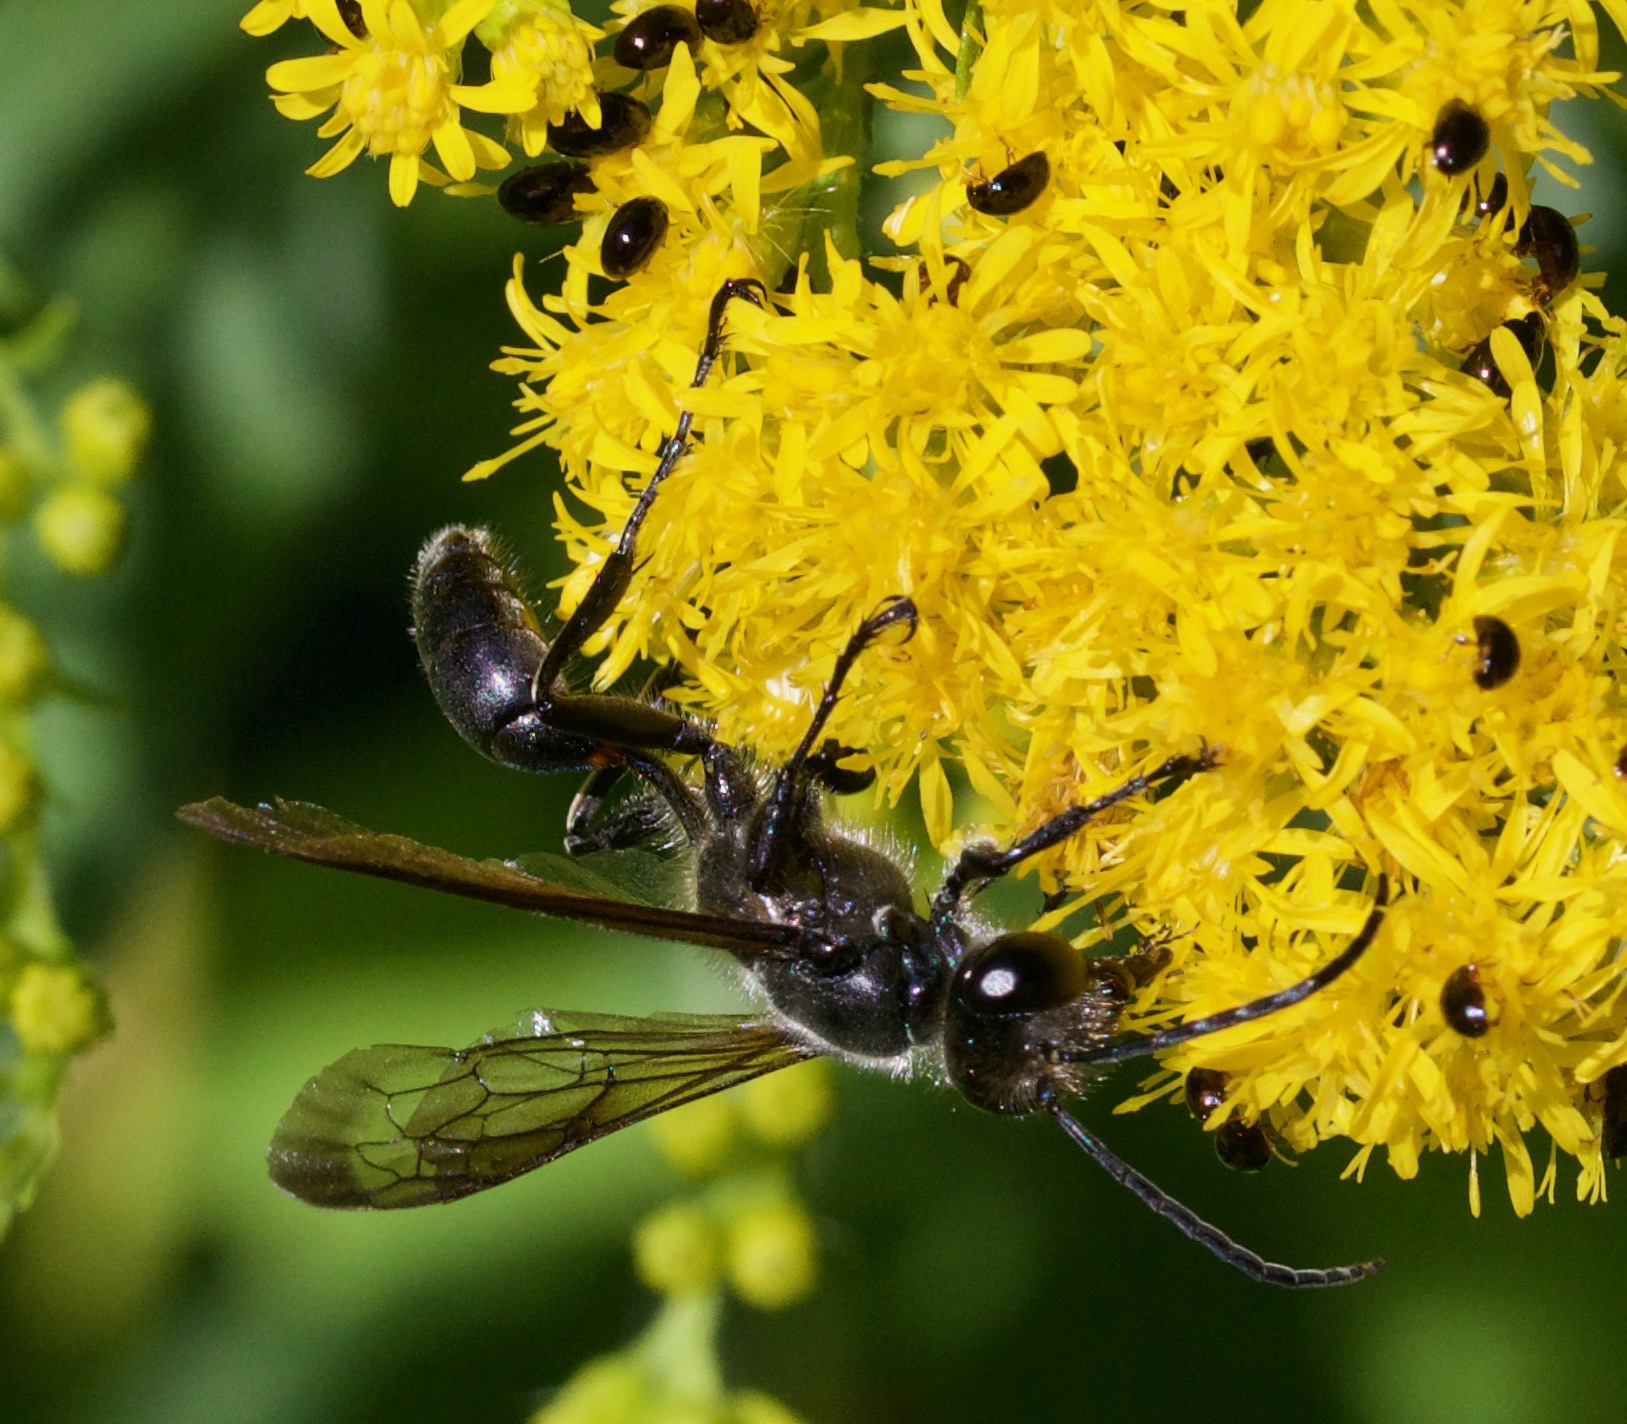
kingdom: Animalia
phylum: Arthropoda
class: Insecta
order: Hymenoptera
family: Sphecidae
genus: Isodontia
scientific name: Isodontia mexicana
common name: Mud dauber
